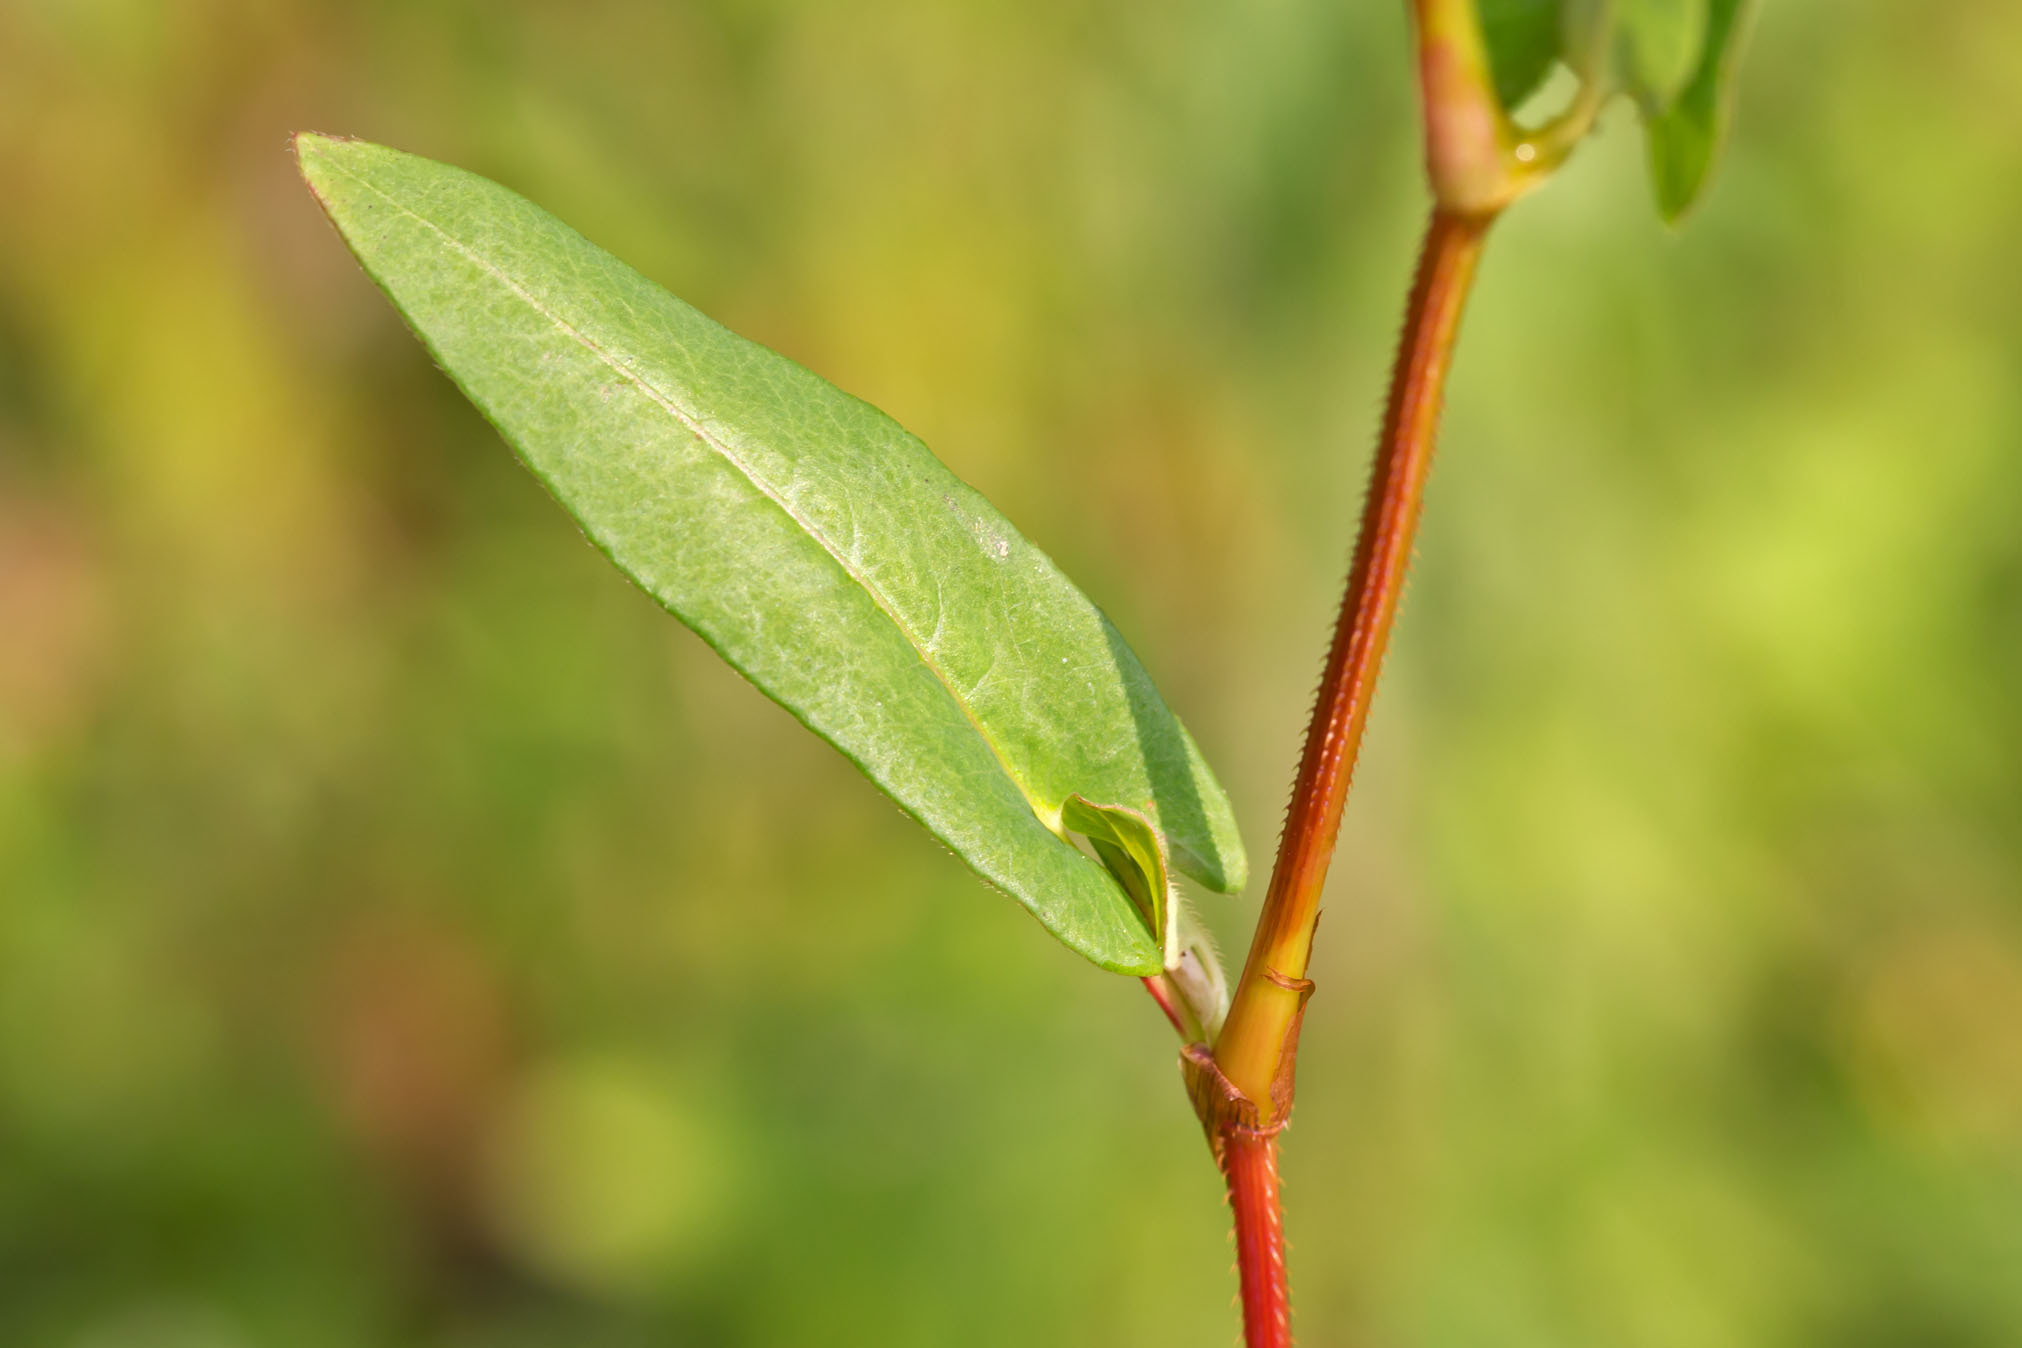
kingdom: Plantae
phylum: Tracheophyta
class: Magnoliopsida
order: Caryophyllales
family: Polygonaceae
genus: Persicaria
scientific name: Persicaria sagittata
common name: American tearthumb
